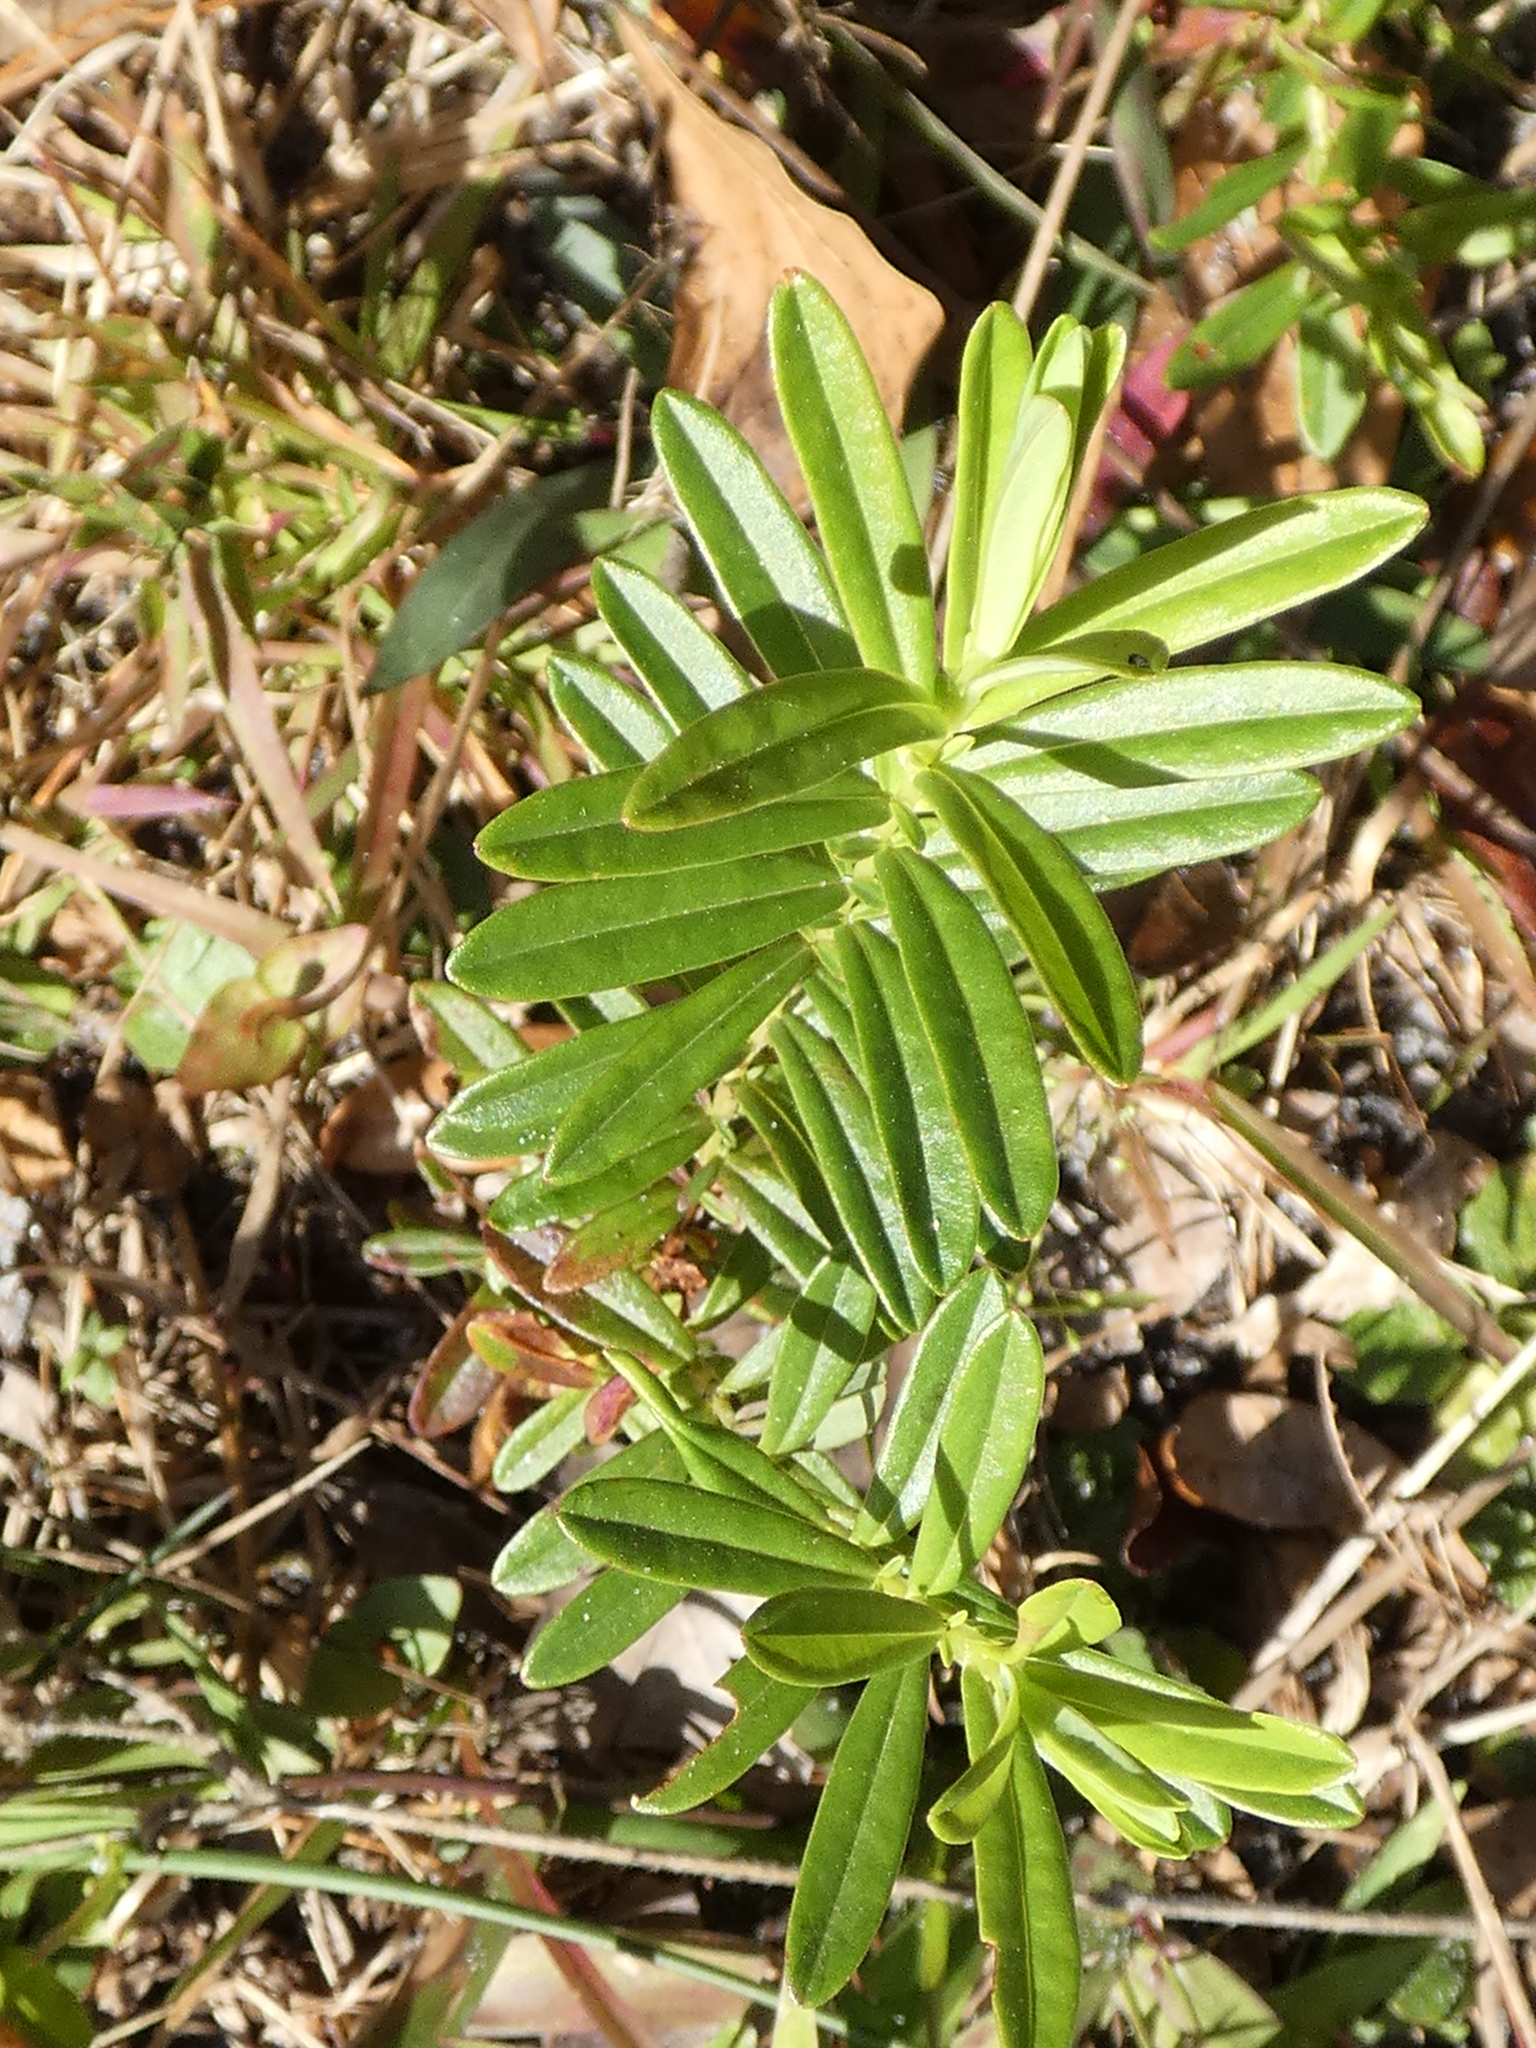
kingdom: Plantae
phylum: Tracheophyta
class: Magnoliopsida
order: Malpighiales
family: Hypericaceae
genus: Hypericum
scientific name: Hypericum cistifolium
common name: Round-pod st. john's-wort
